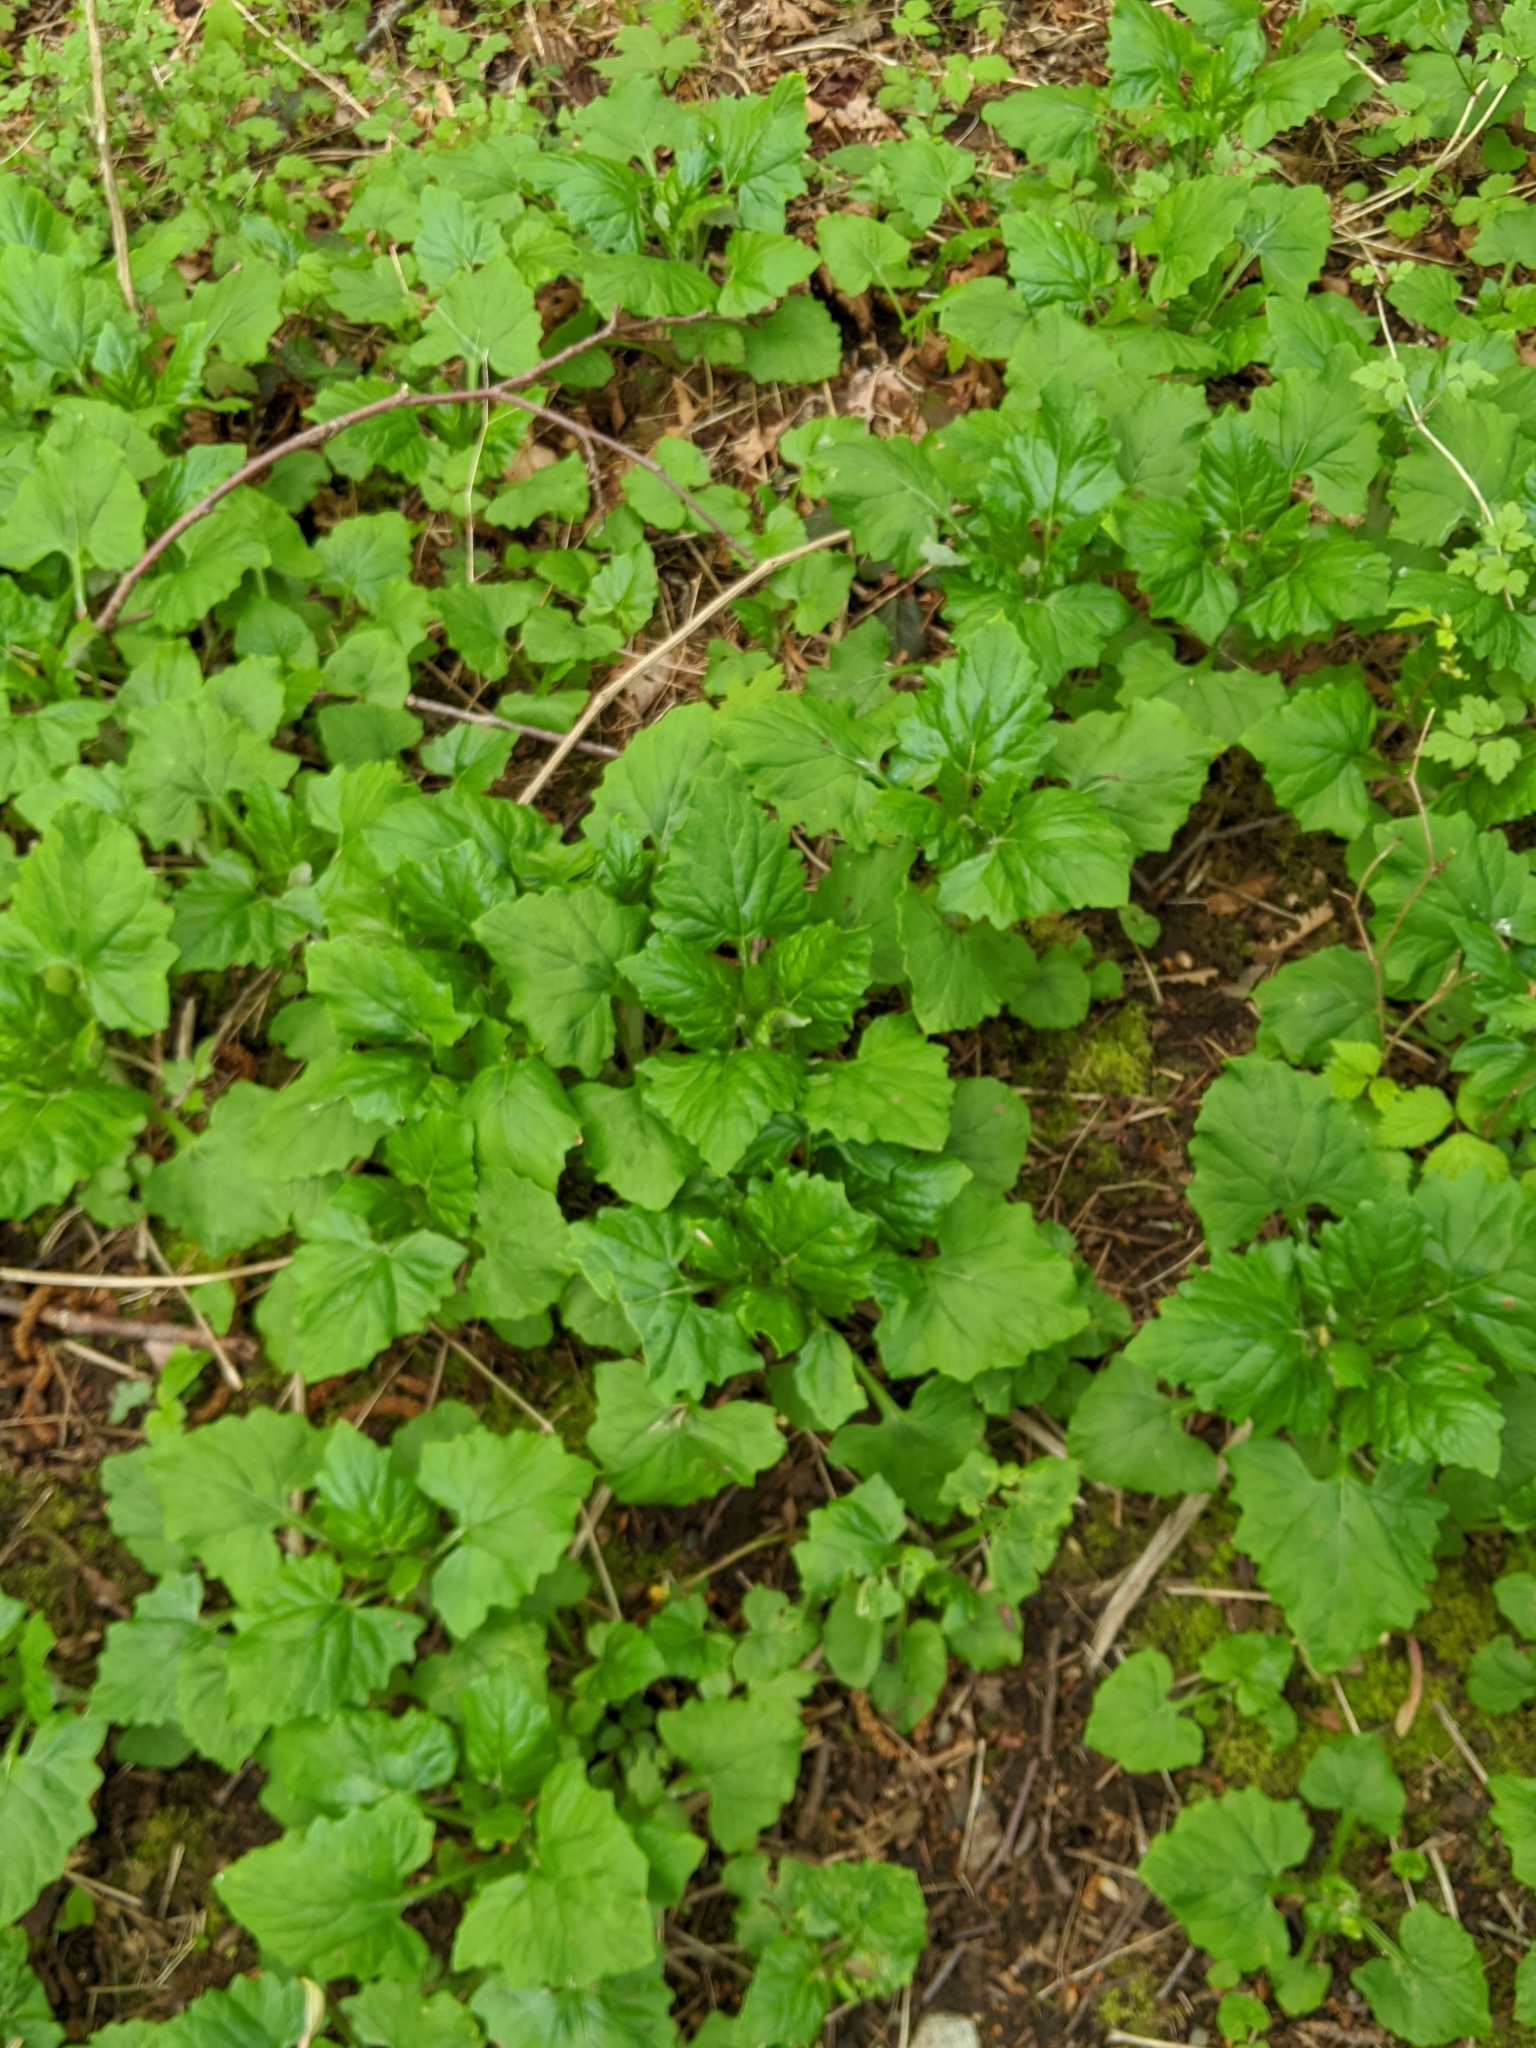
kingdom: Plantae
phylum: Tracheophyta
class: Magnoliopsida
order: Asterales
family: Asteraceae
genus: Adenocaulon
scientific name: Adenocaulon bicolor
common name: Trailplant
